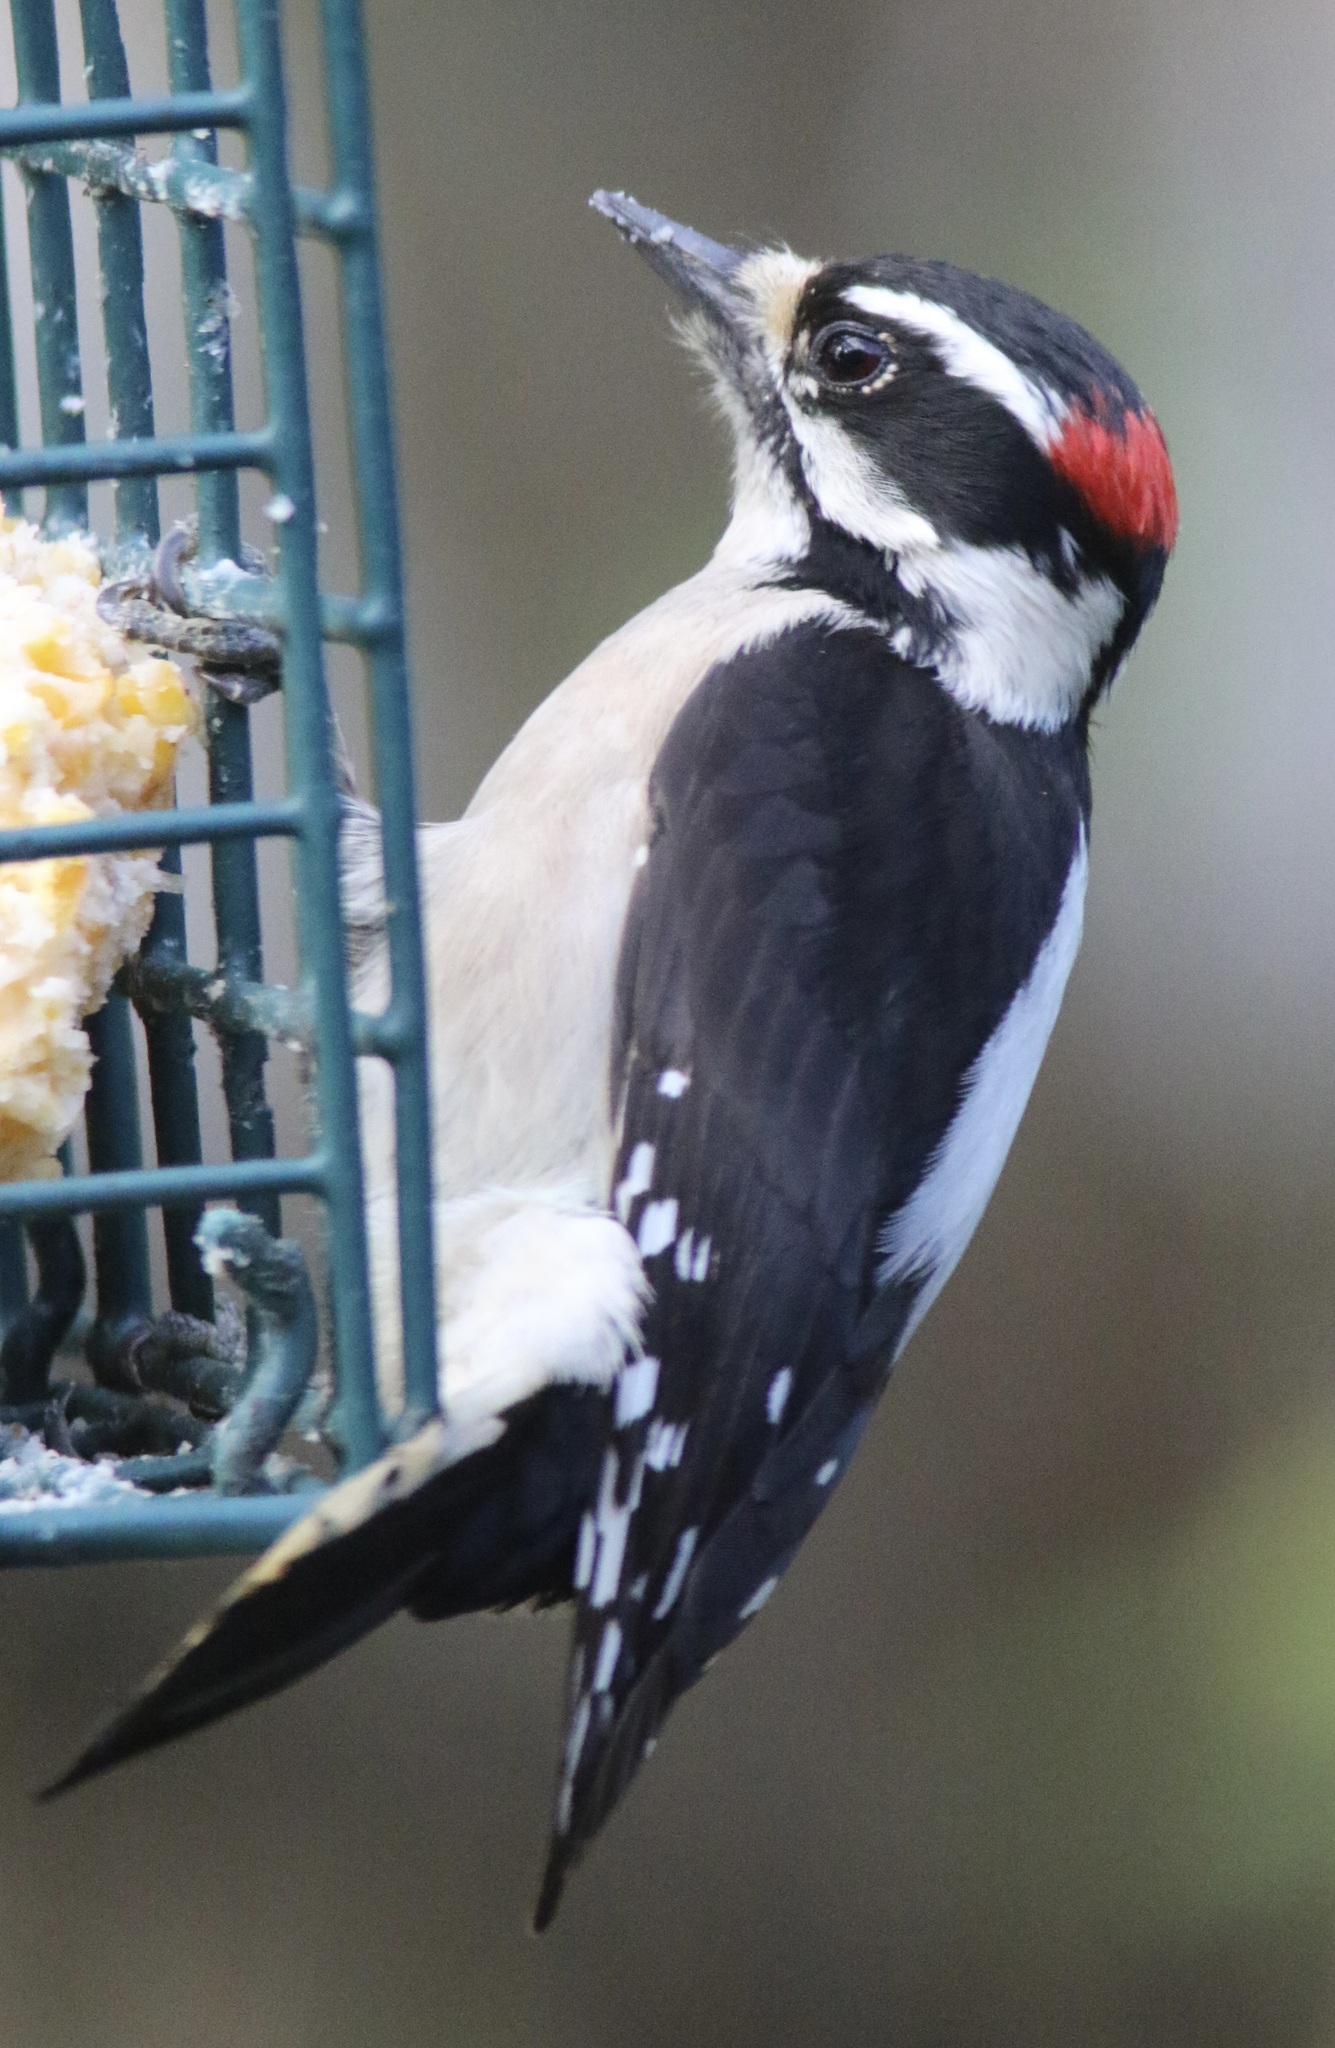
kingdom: Animalia
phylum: Chordata
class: Aves
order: Piciformes
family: Picidae
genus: Dryobates
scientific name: Dryobates pubescens
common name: Downy woodpecker
